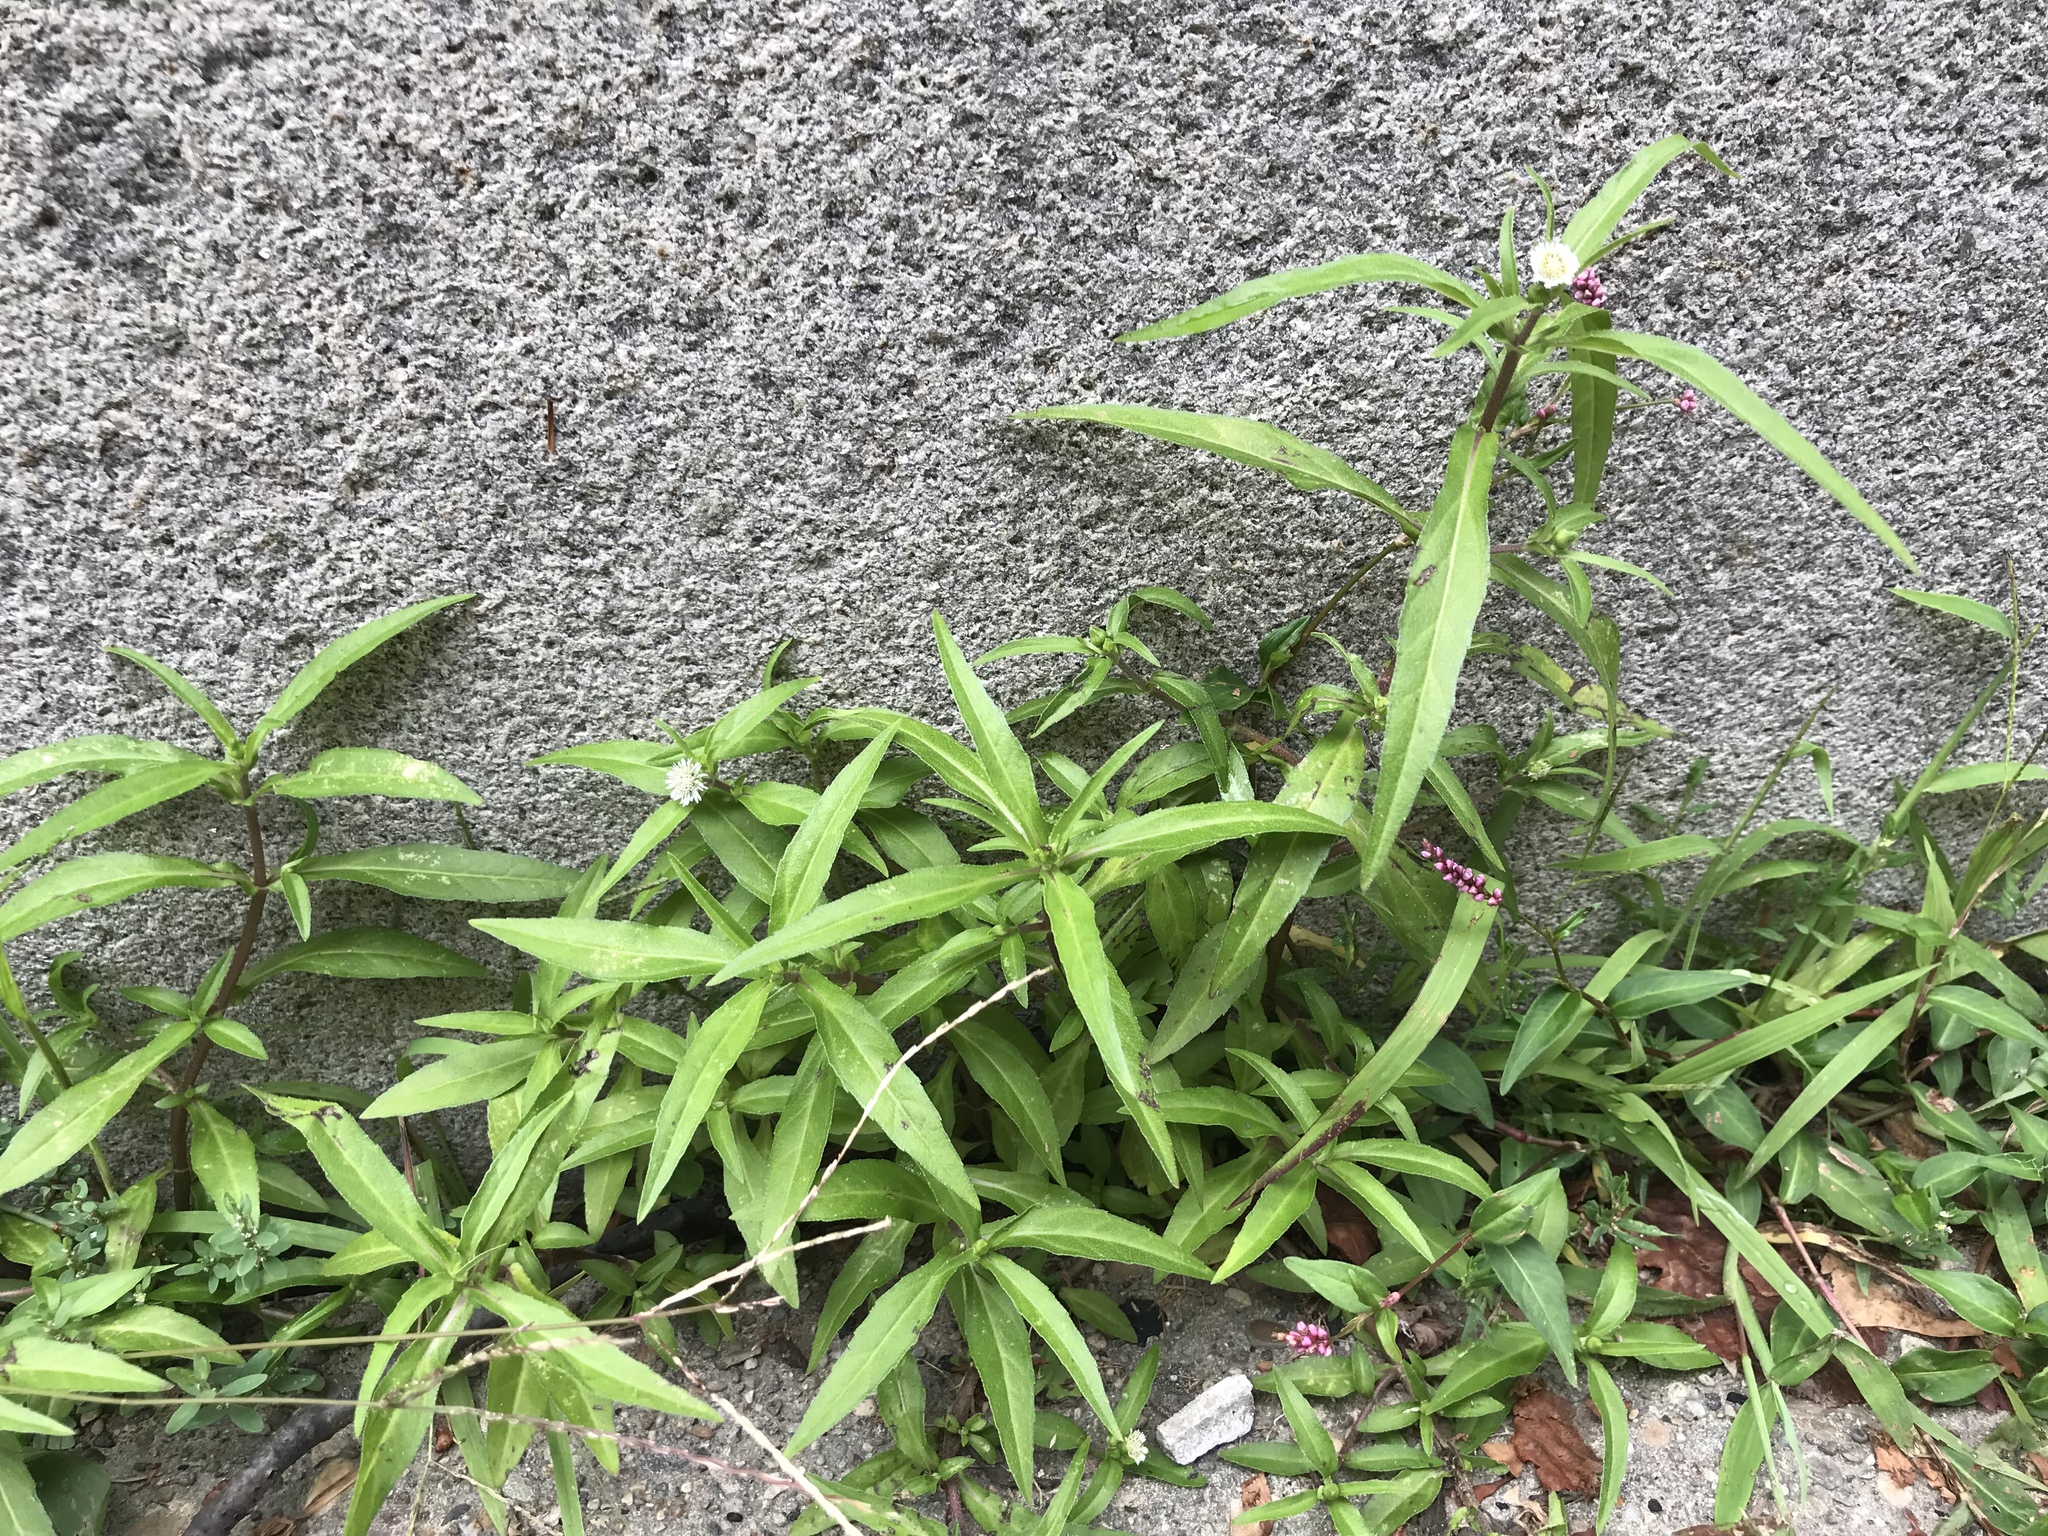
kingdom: Plantae
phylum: Tracheophyta
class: Magnoliopsida
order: Asterales
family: Asteraceae
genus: Eclipta
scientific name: Eclipta prostrata
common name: False daisy
